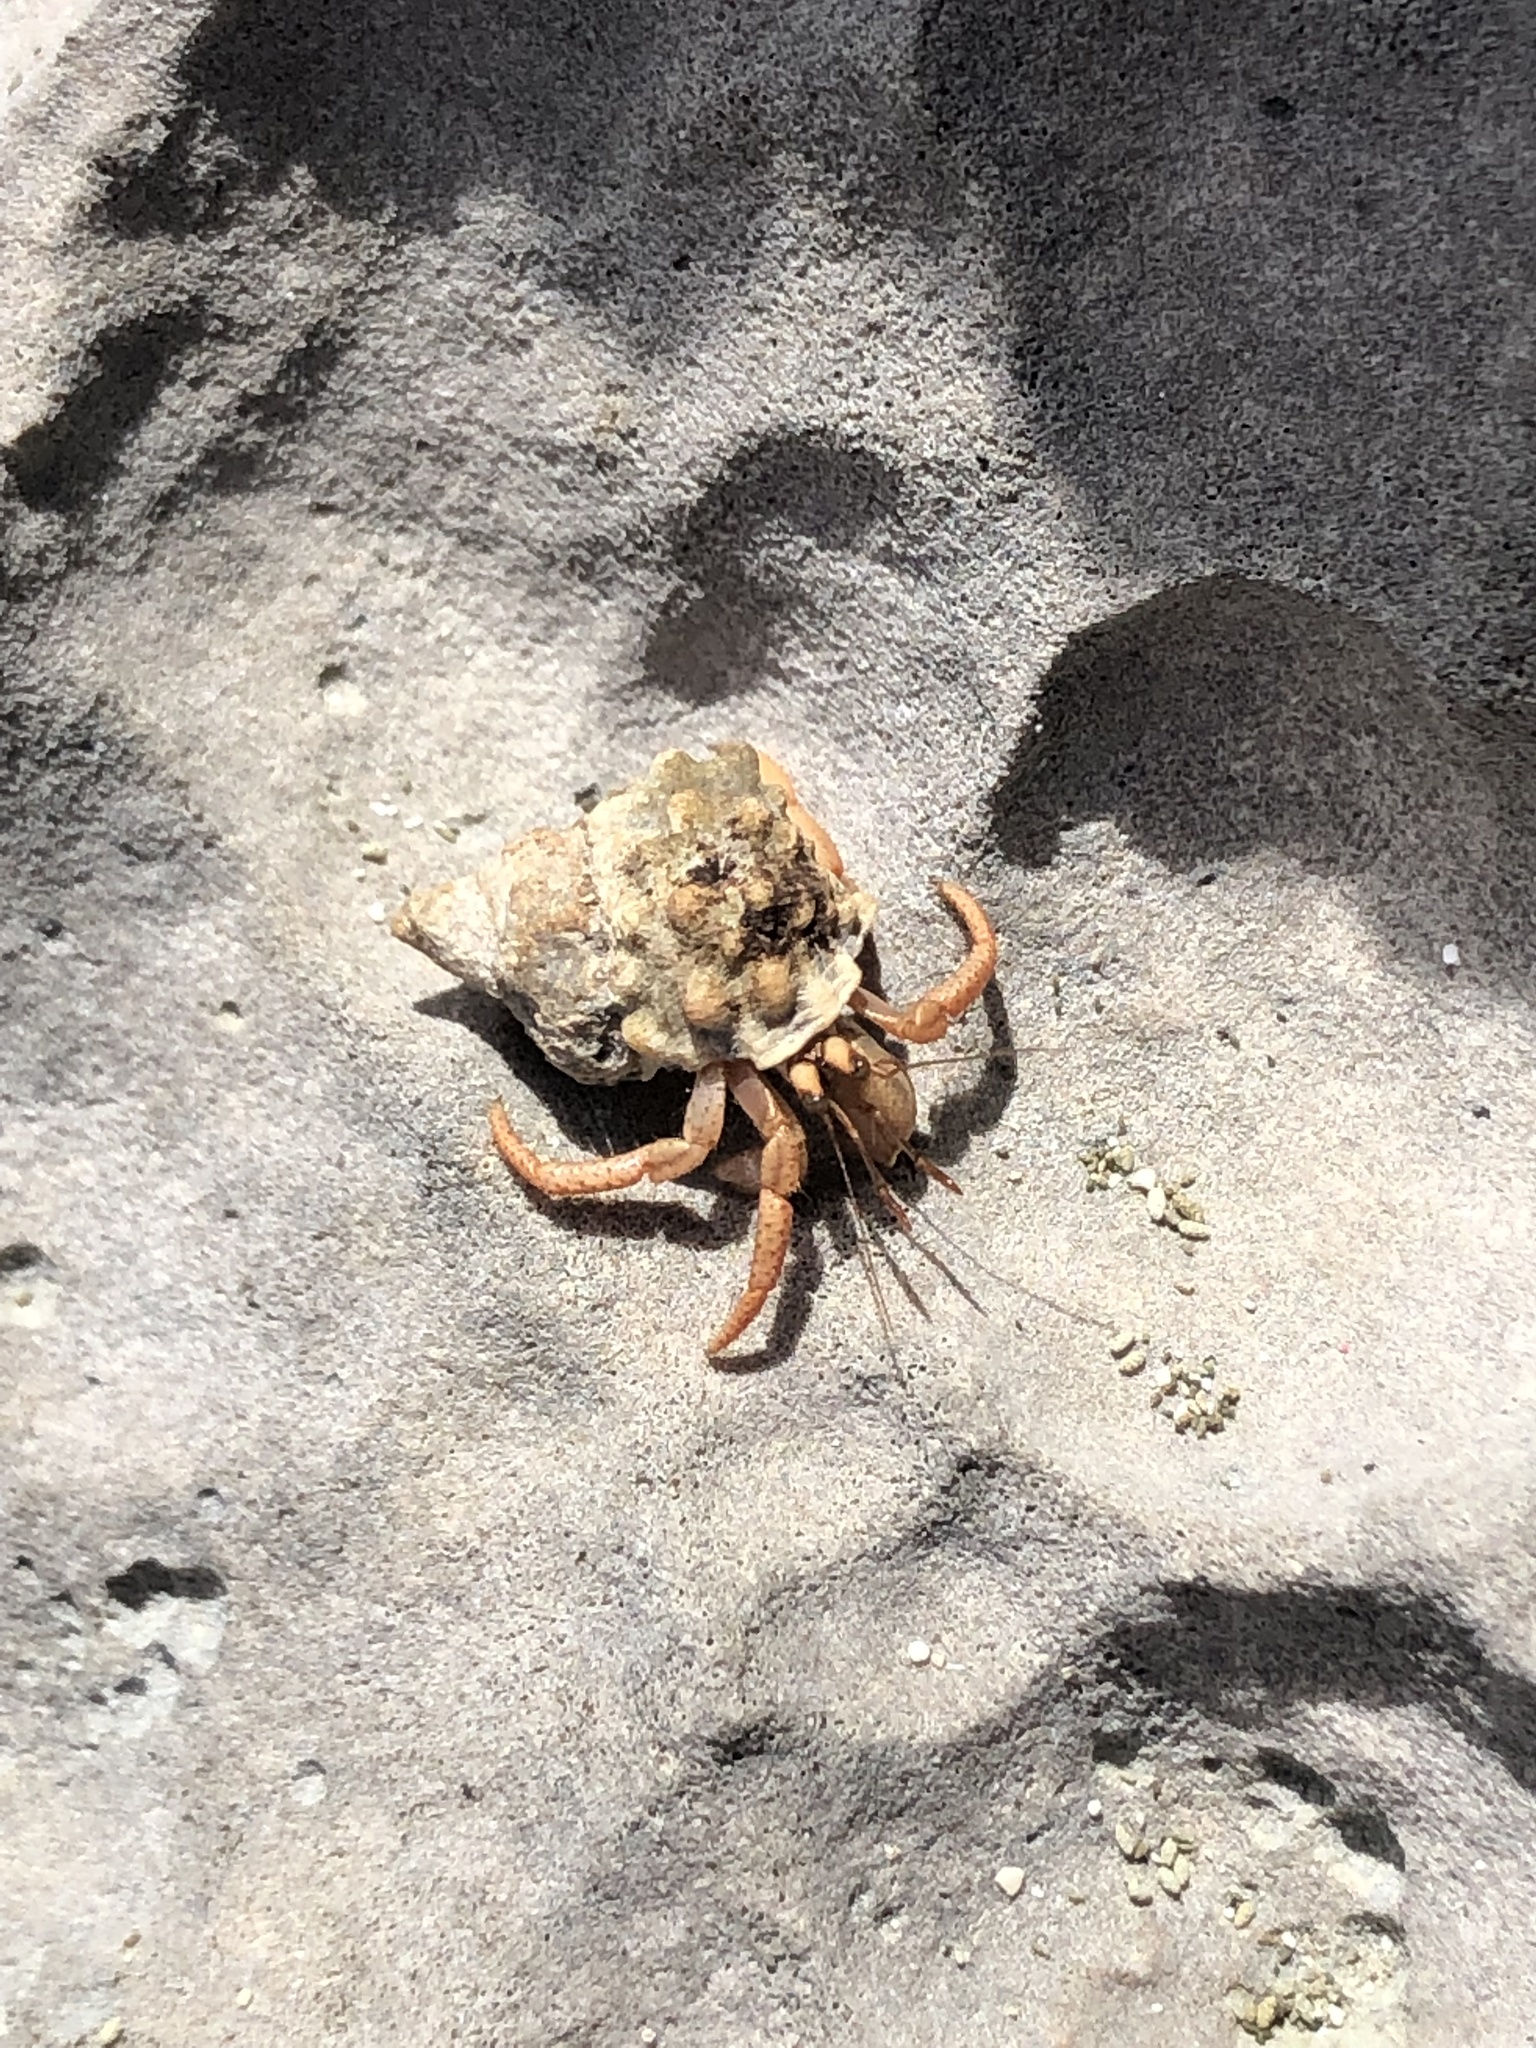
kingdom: Animalia
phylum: Arthropoda
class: Malacostraca
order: Decapoda
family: Coenobitidae
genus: Coenobita
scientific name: Coenobita clypeatus
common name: Caribbean hermit crab
